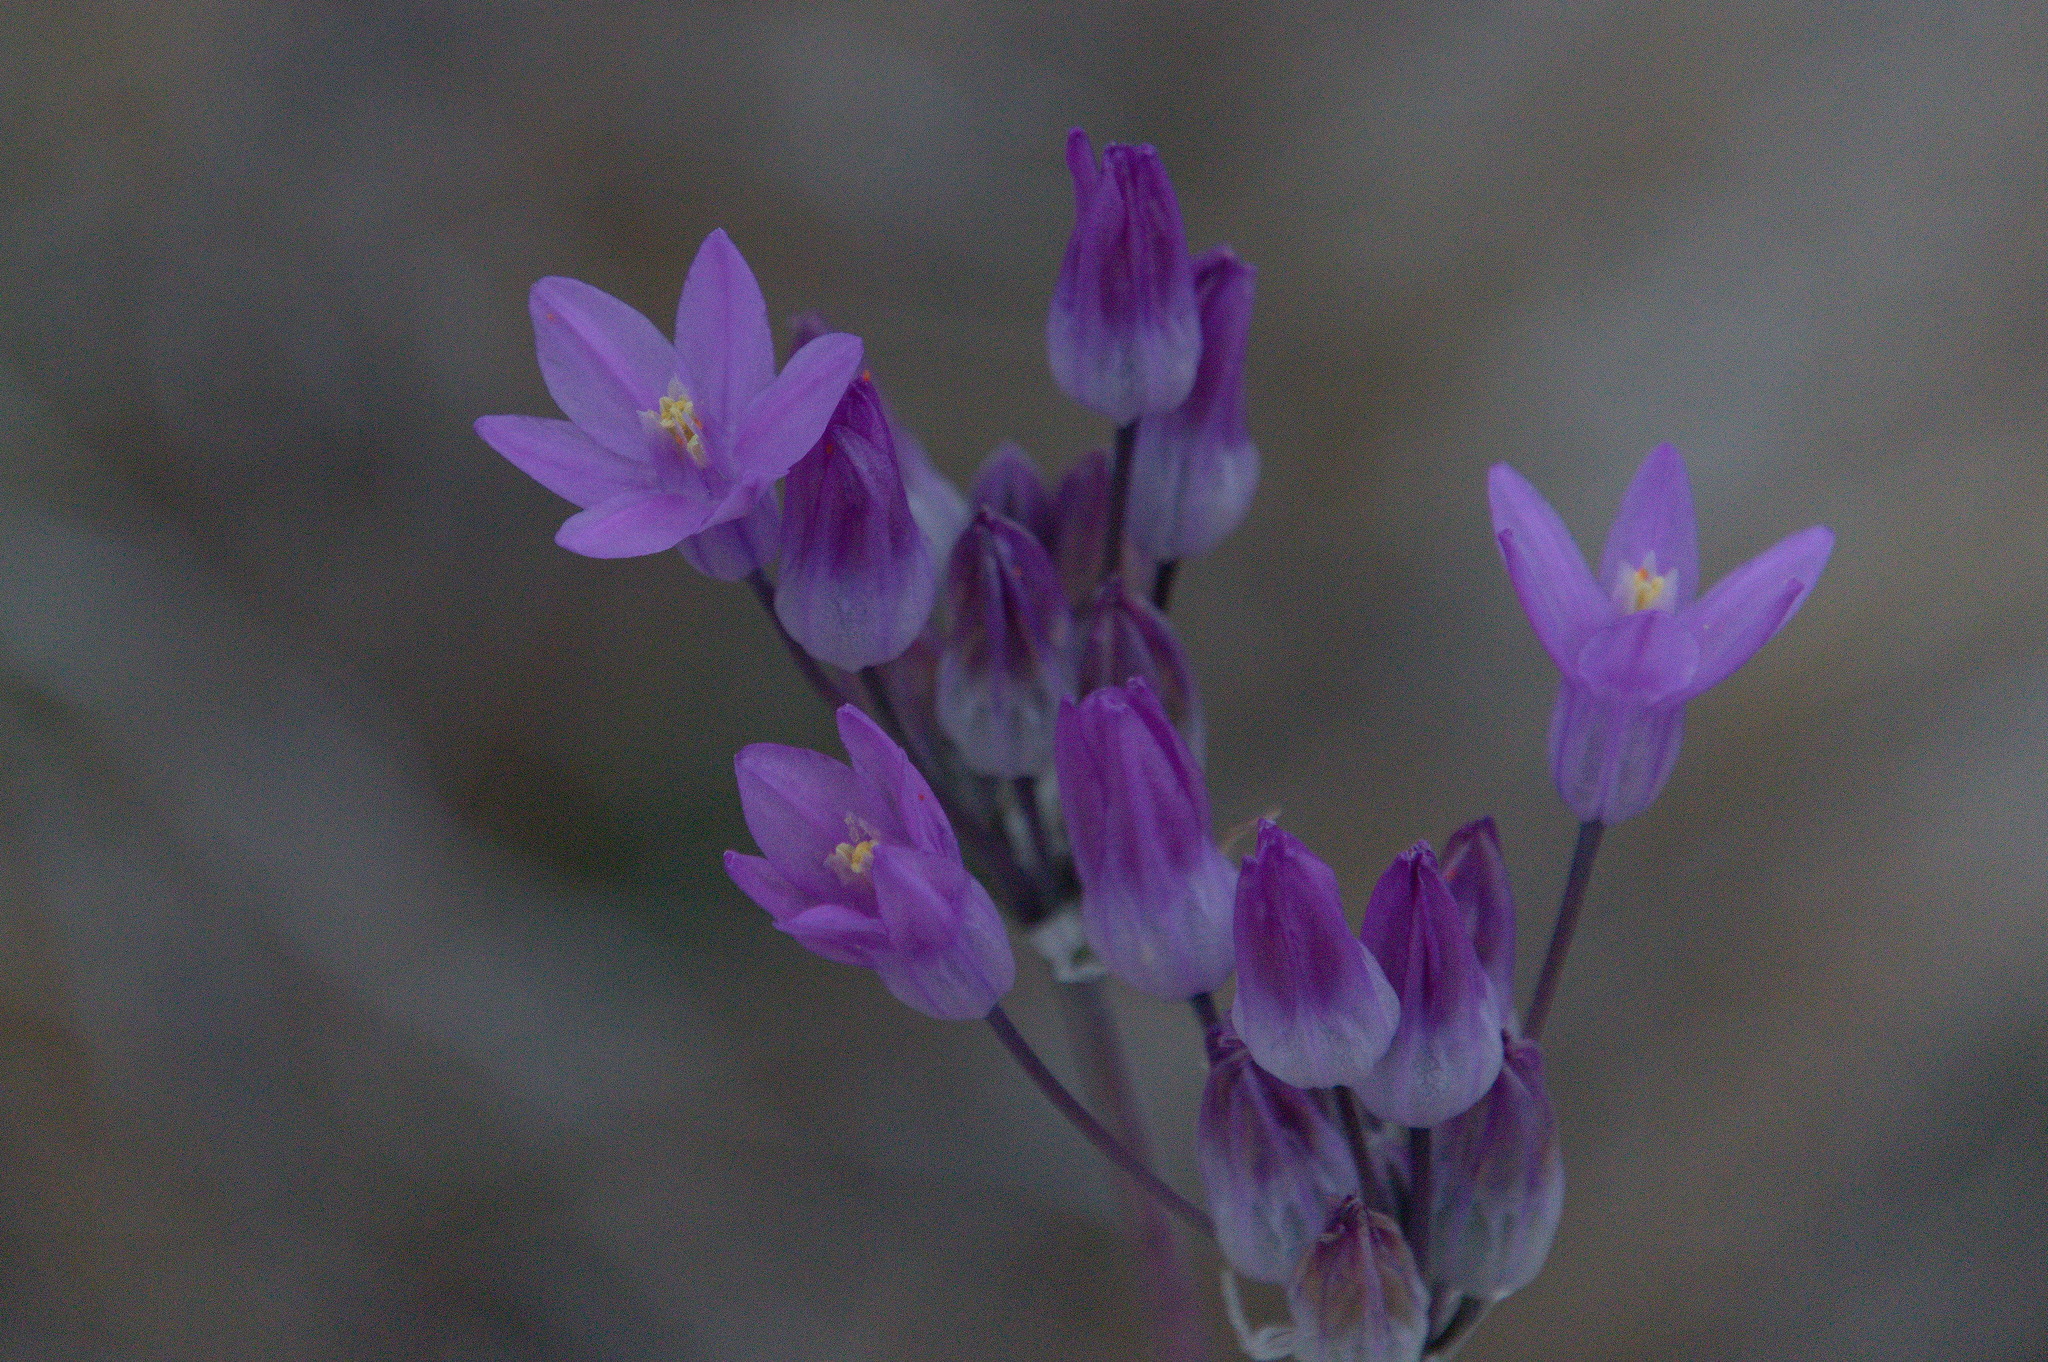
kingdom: Plantae
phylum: Tracheophyta
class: Liliopsida
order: Asparagales
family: Asparagaceae
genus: Dipterostemon
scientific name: Dipterostemon capitatus
